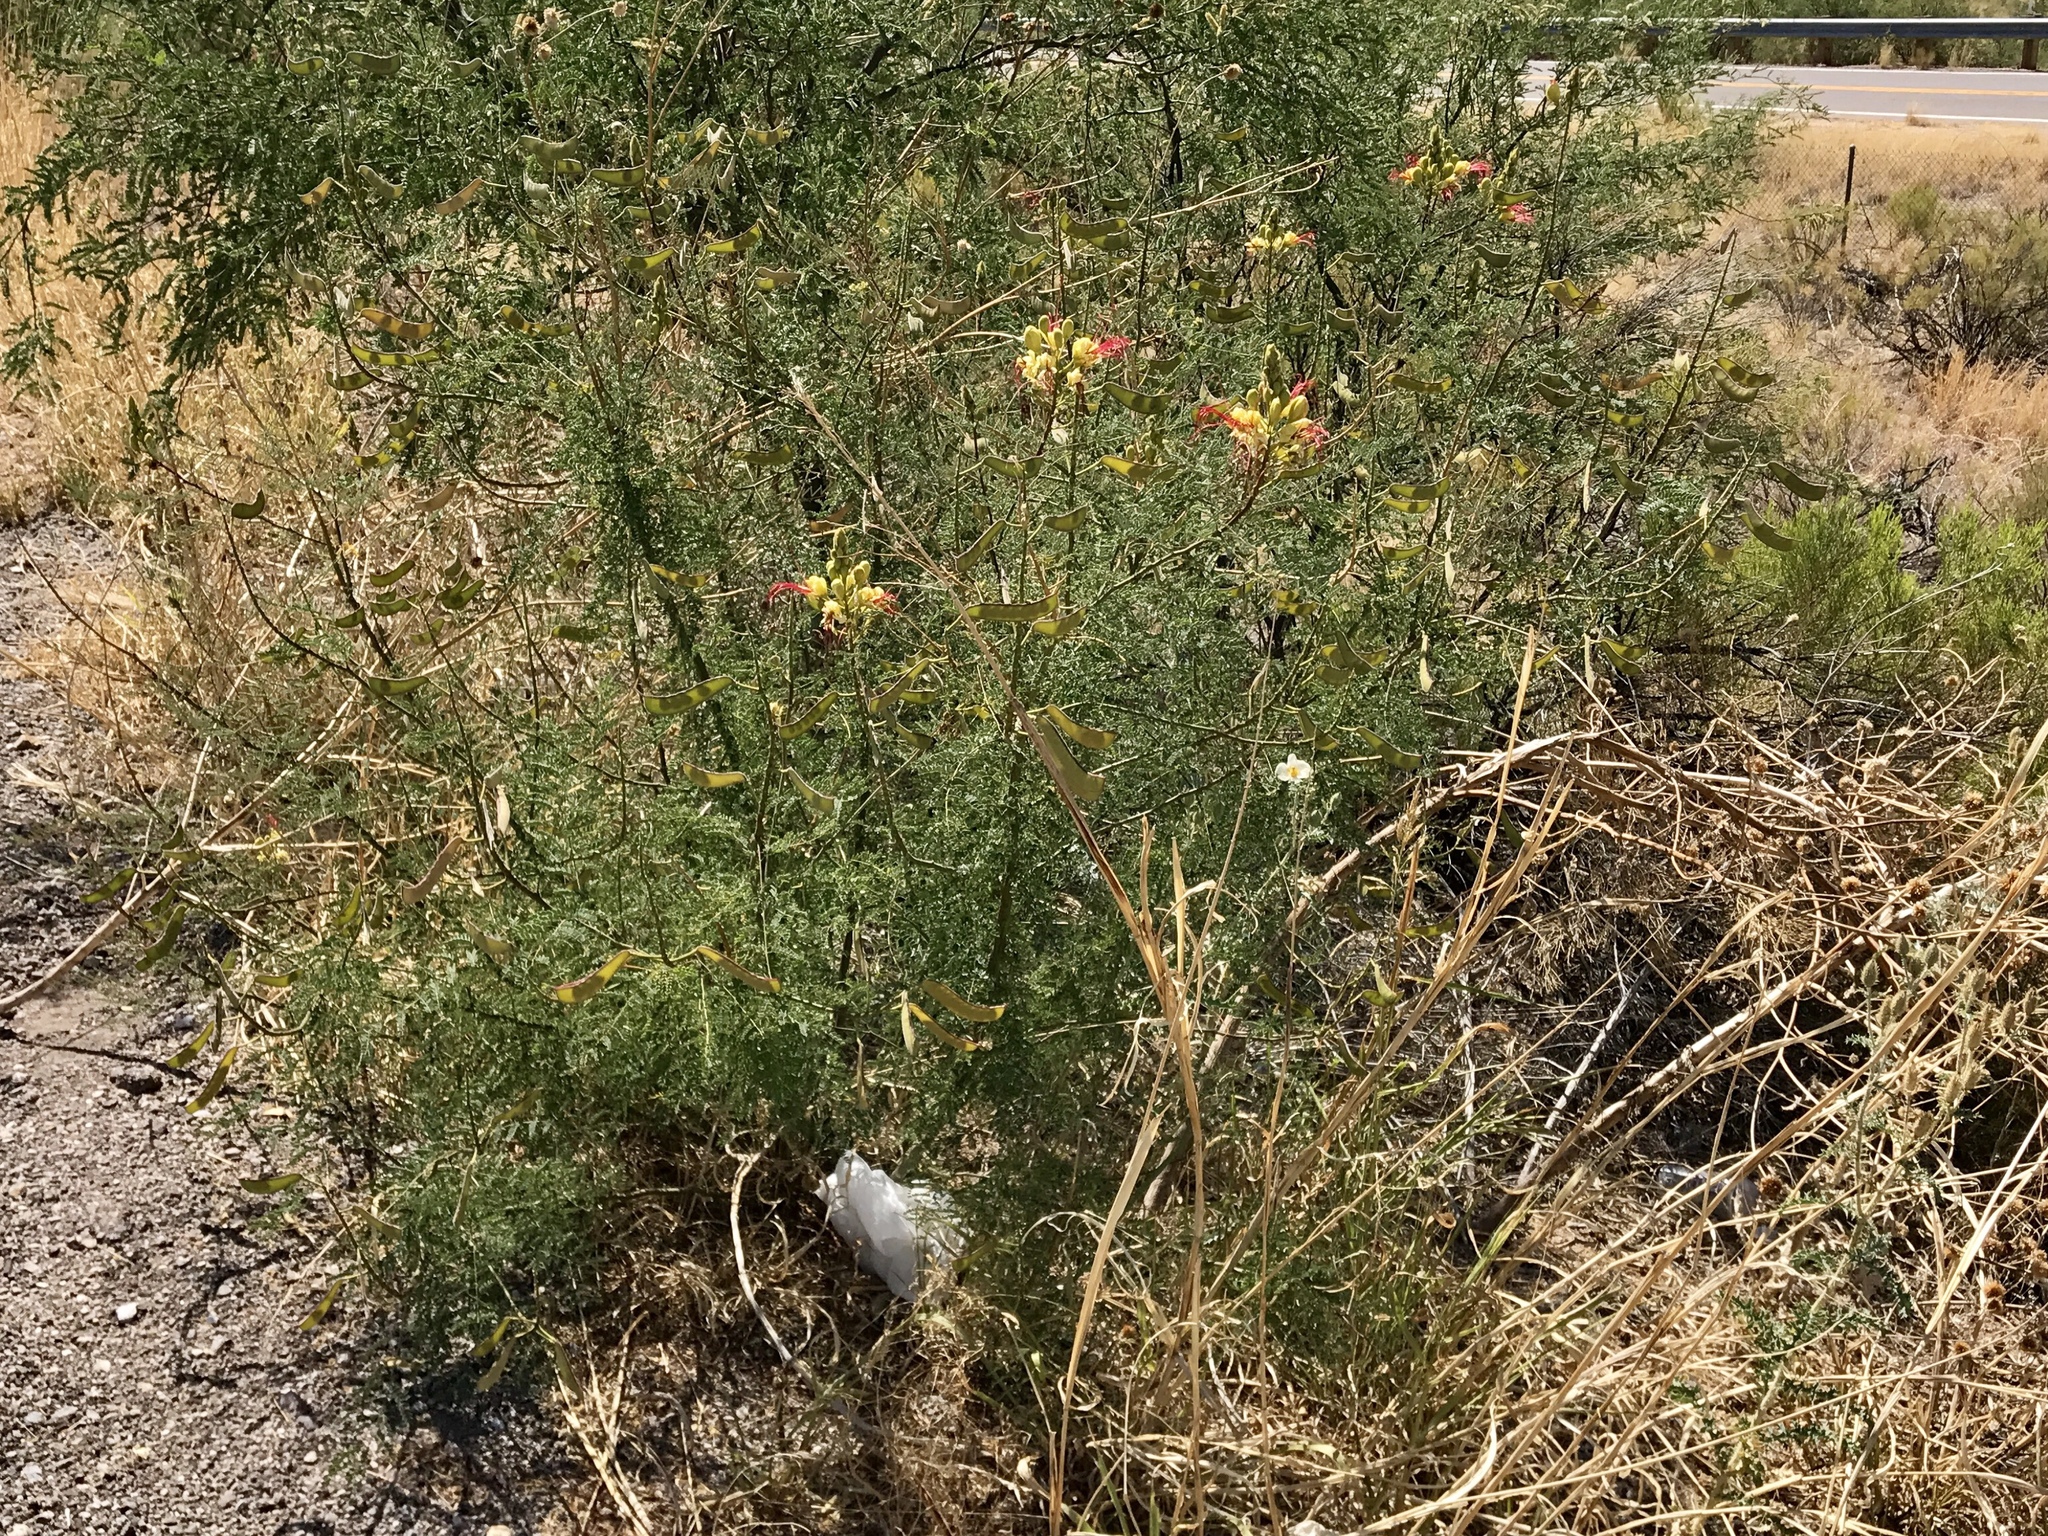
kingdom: Plantae
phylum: Tracheophyta
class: Magnoliopsida
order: Fabales
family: Fabaceae
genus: Erythrostemon
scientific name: Erythrostemon gilliesii
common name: Bird-of-paradise shrub
